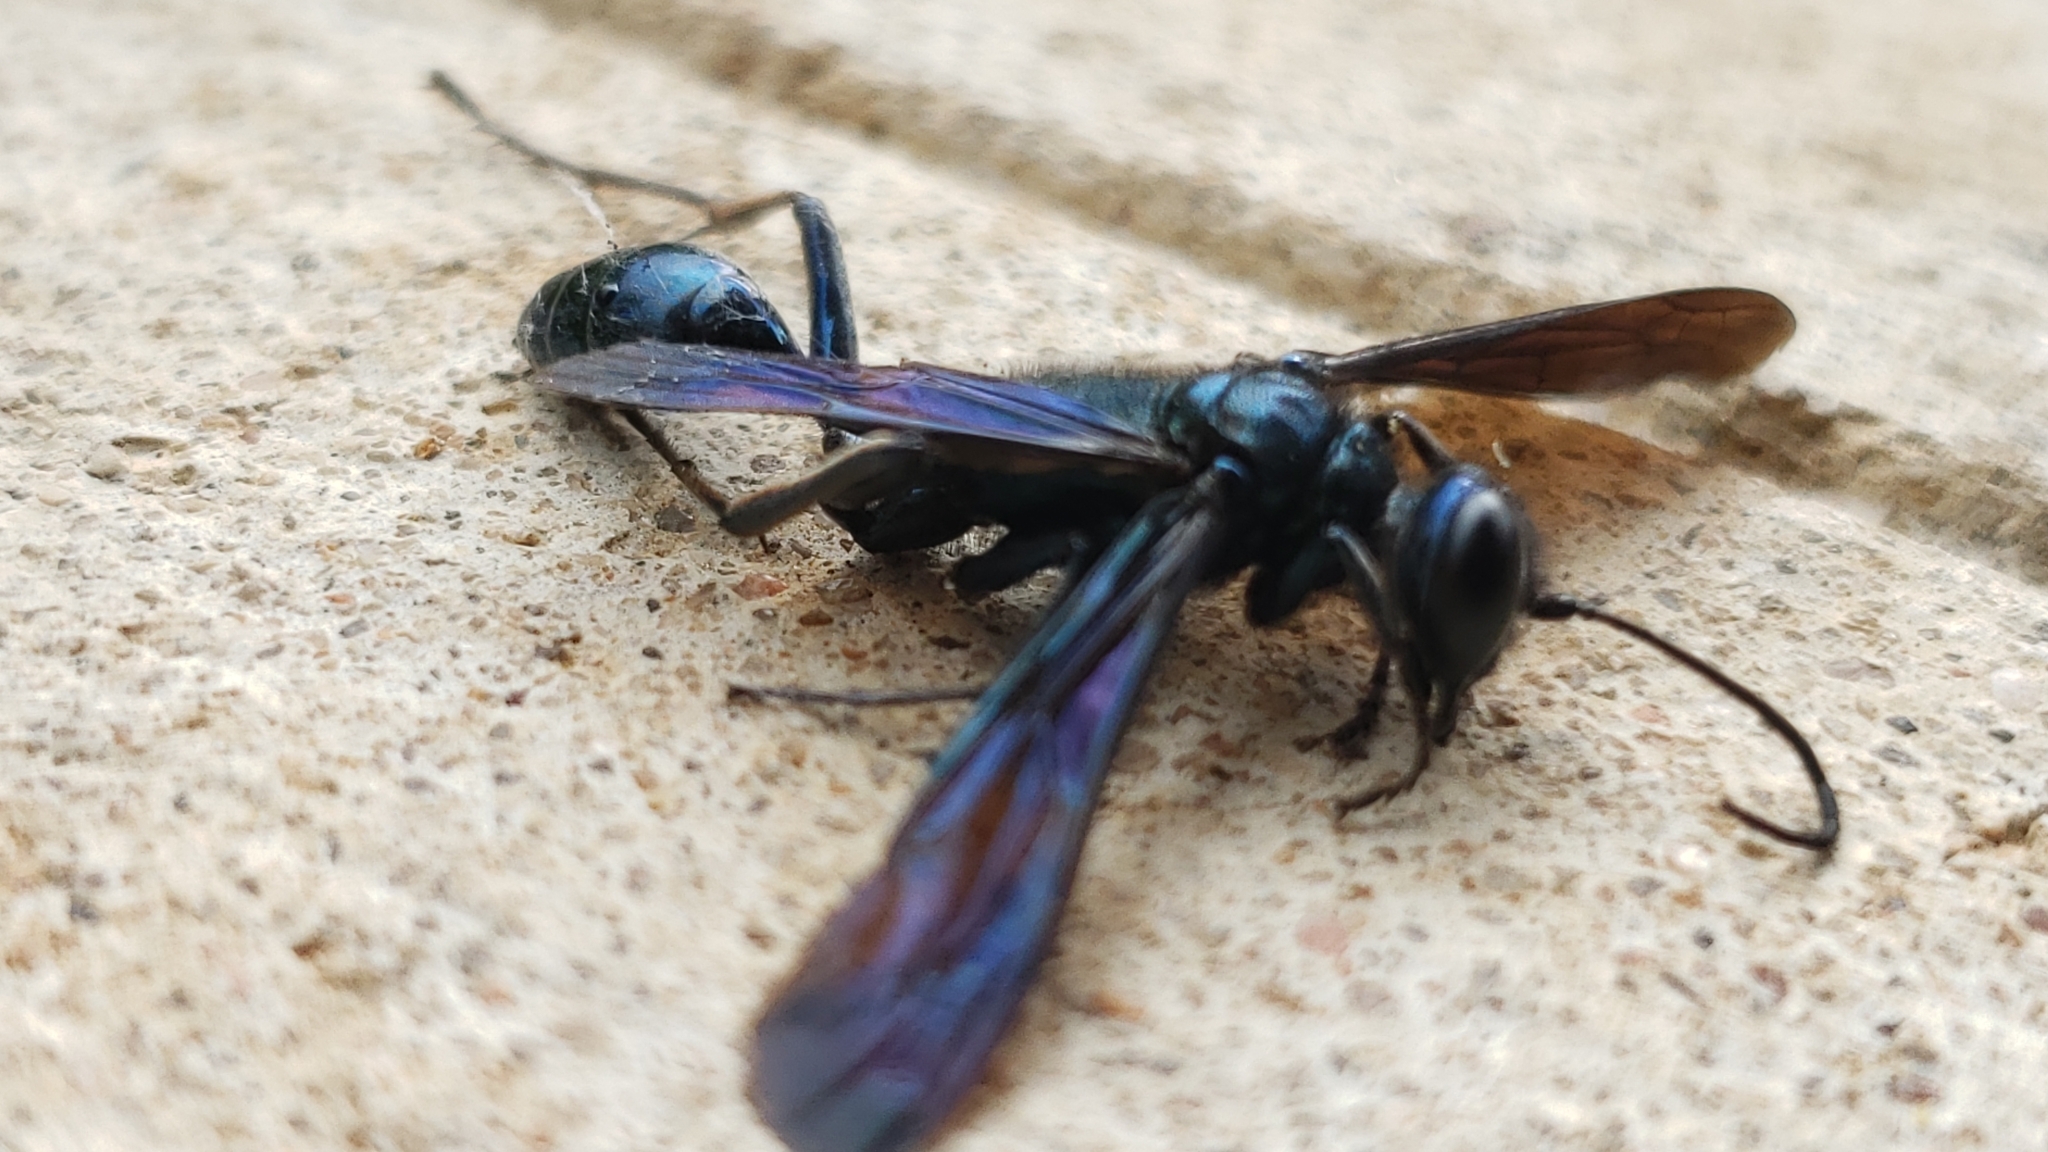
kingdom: Animalia
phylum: Arthropoda
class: Insecta
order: Hymenoptera
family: Sphecidae
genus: Chalybion
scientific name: Chalybion californicum
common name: Mud dauber
